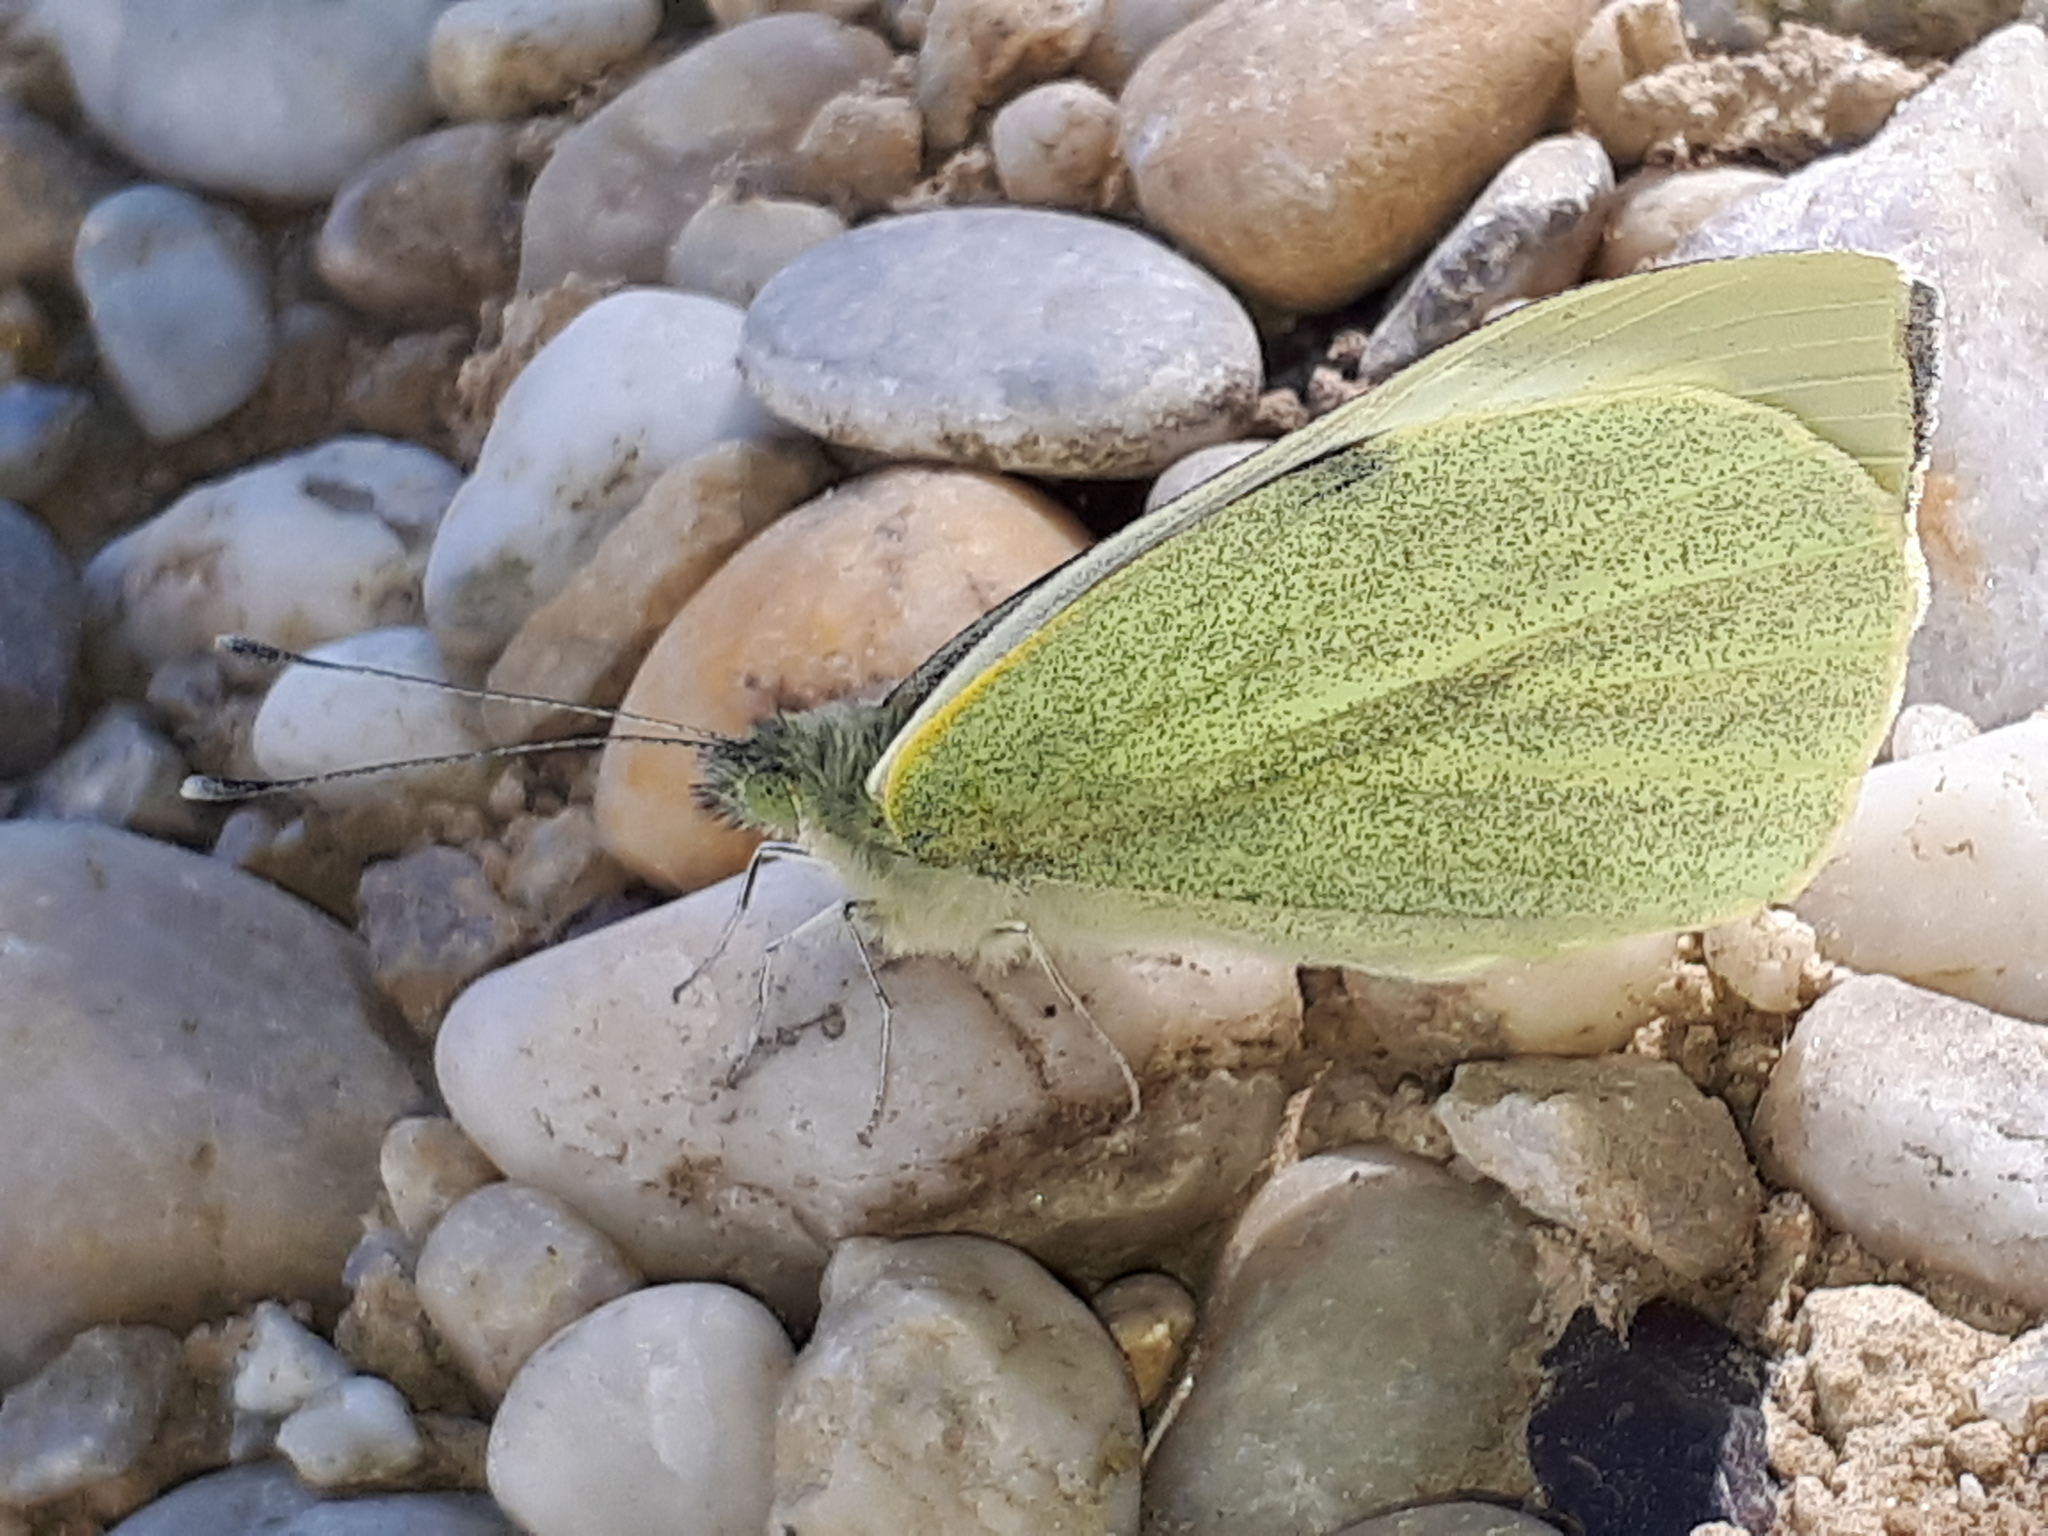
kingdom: Animalia
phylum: Arthropoda
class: Insecta
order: Lepidoptera
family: Pieridae
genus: Pieris
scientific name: Pieris brassicae
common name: Large white
